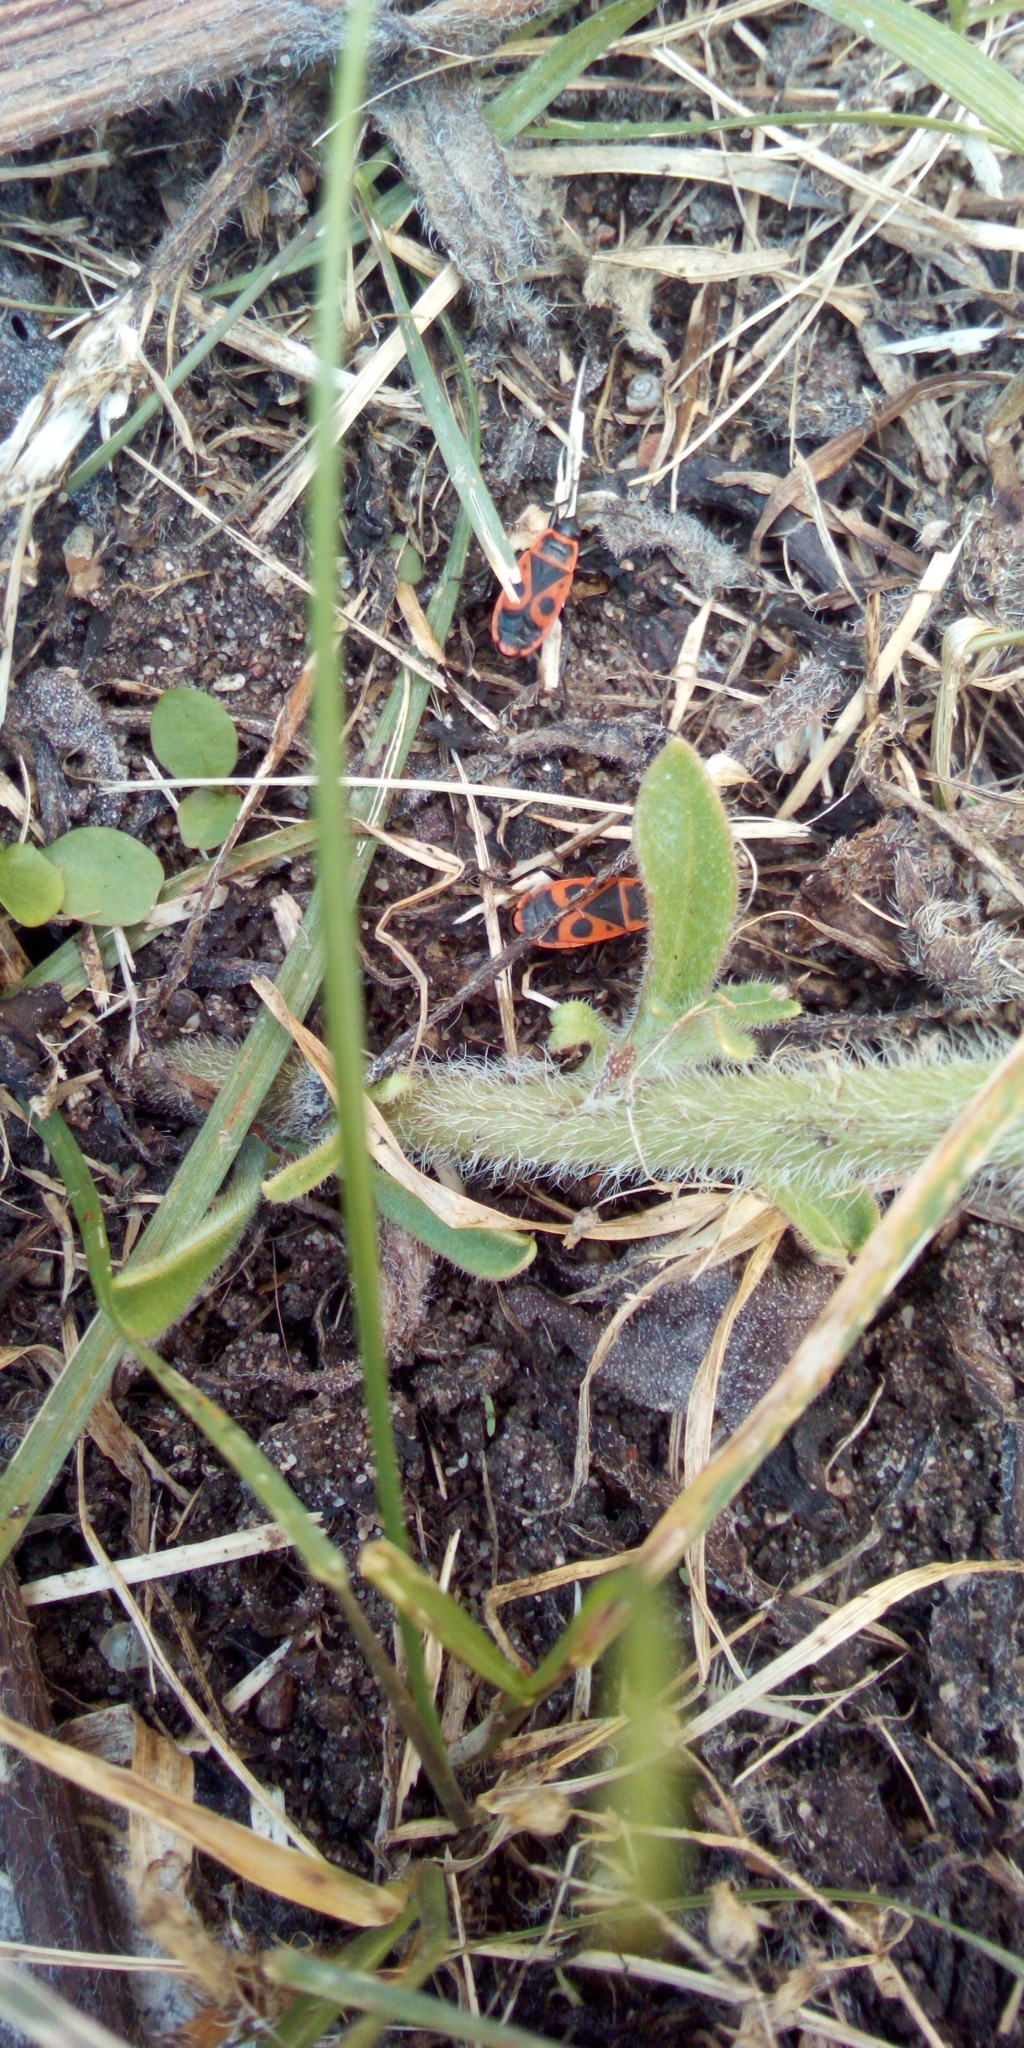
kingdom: Animalia
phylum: Arthropoda
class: Insecta
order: Hemiptera
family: Pyrrhocoridae
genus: Pyrrhocoris
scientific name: Pyrrhocoris apterus
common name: Firebug
